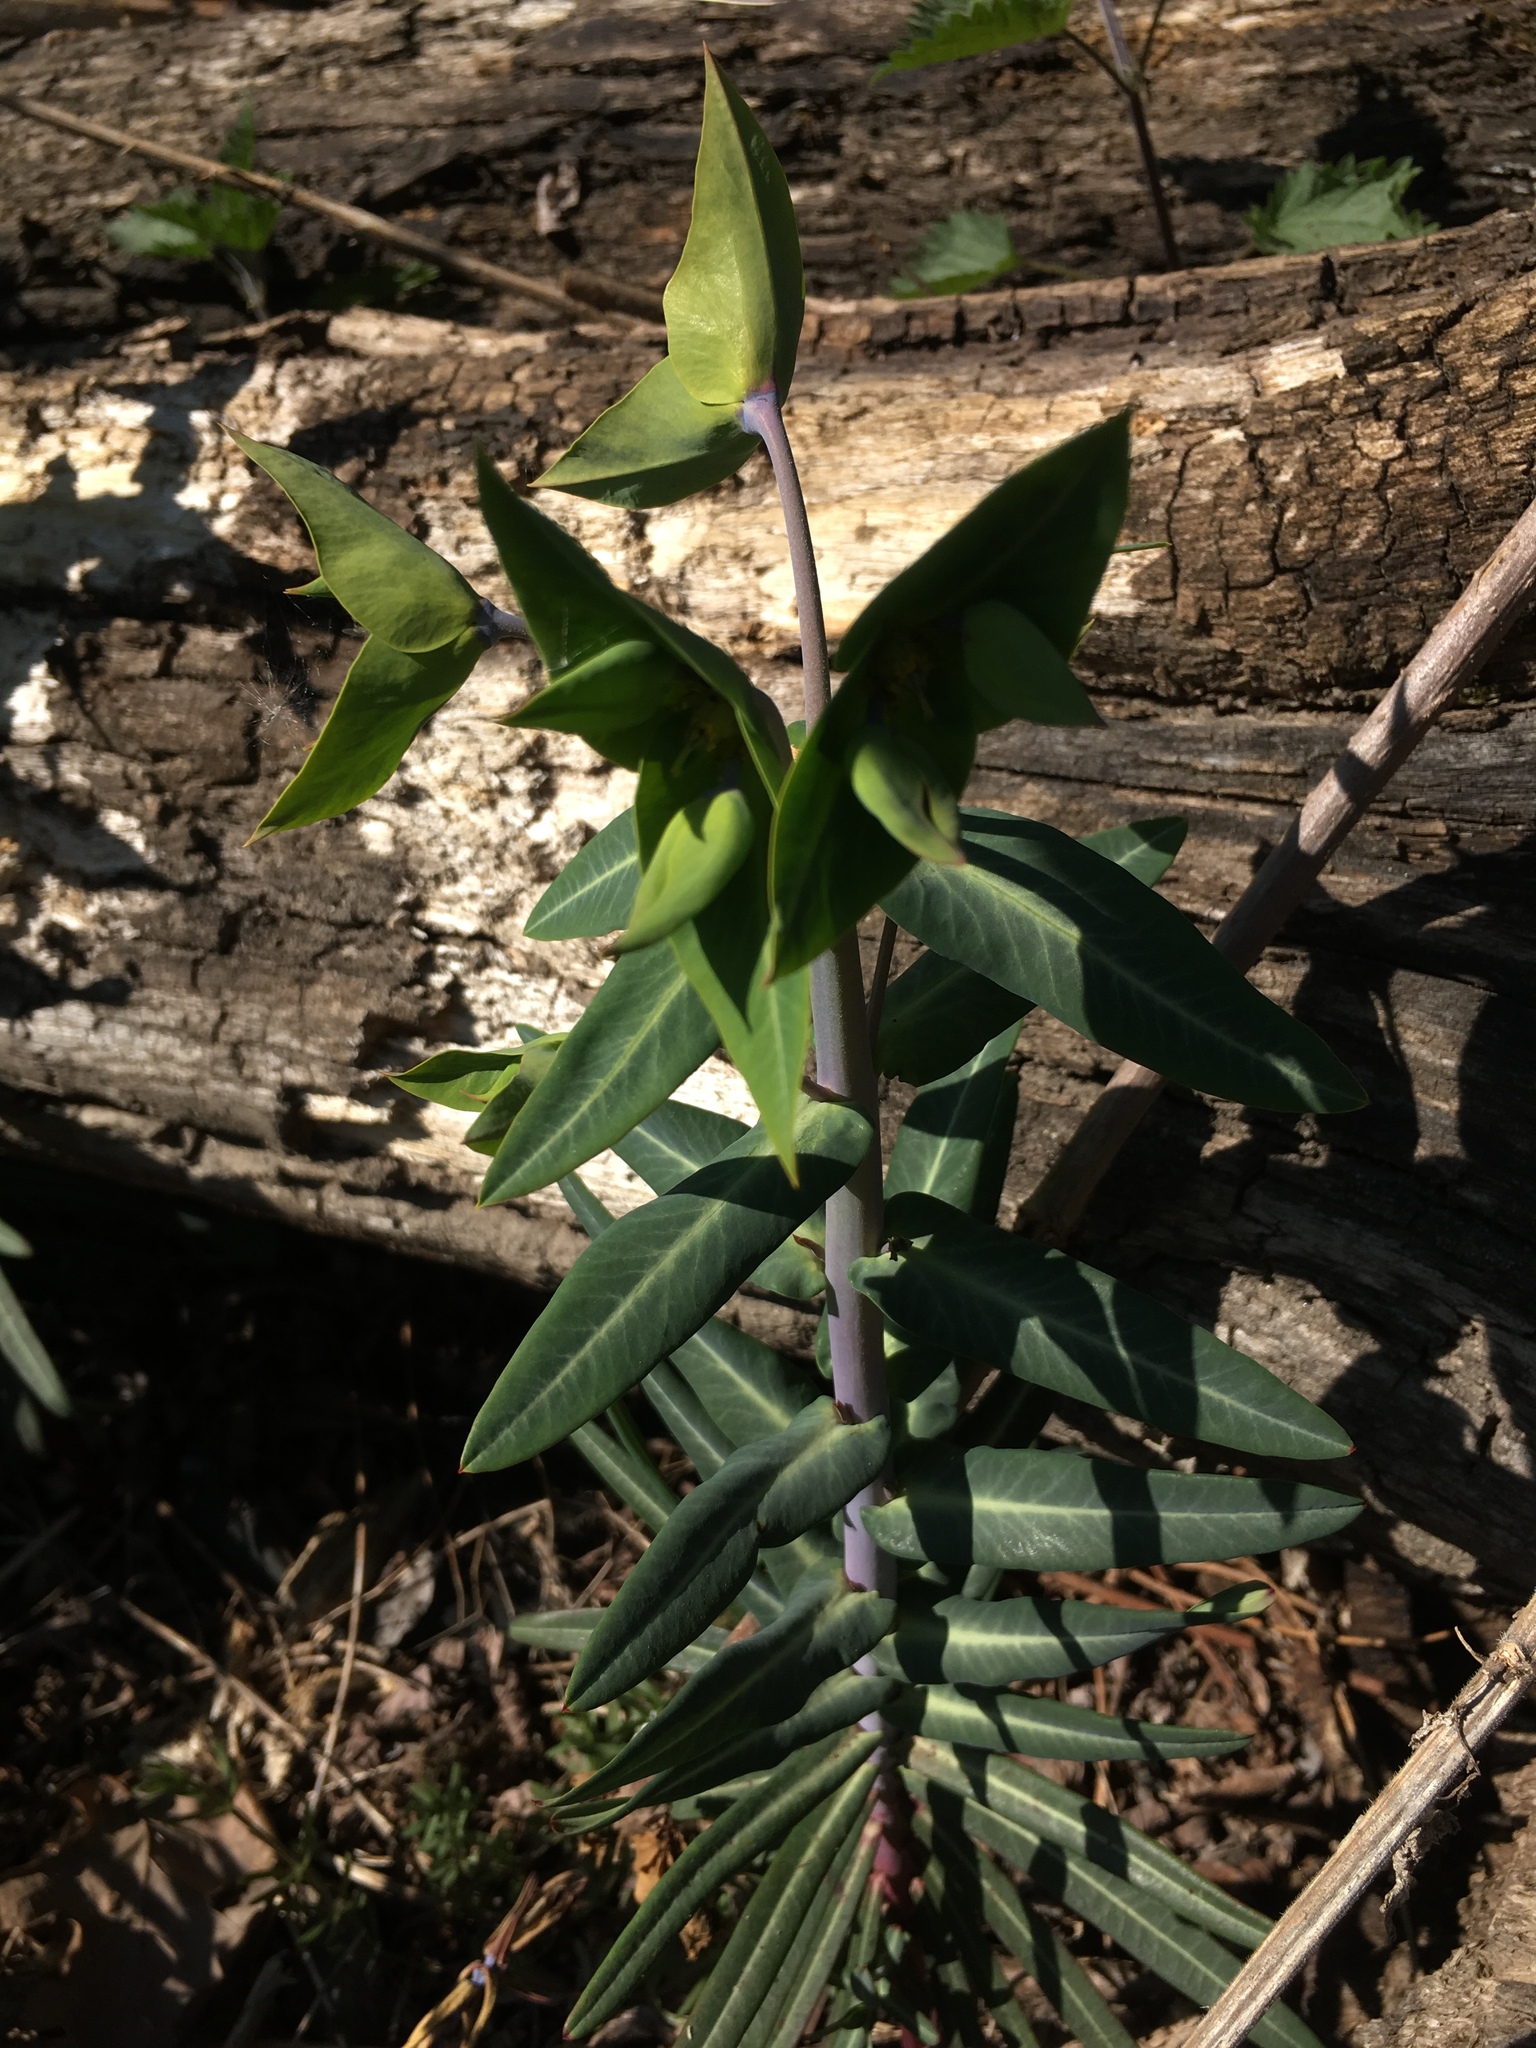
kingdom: Plantae
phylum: Tracheophyta
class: Magnoliopsida
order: Malpighiales
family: Euphorbiaceae
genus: Euphorbia
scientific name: Euphorbia lathyris
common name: Caper spurge
